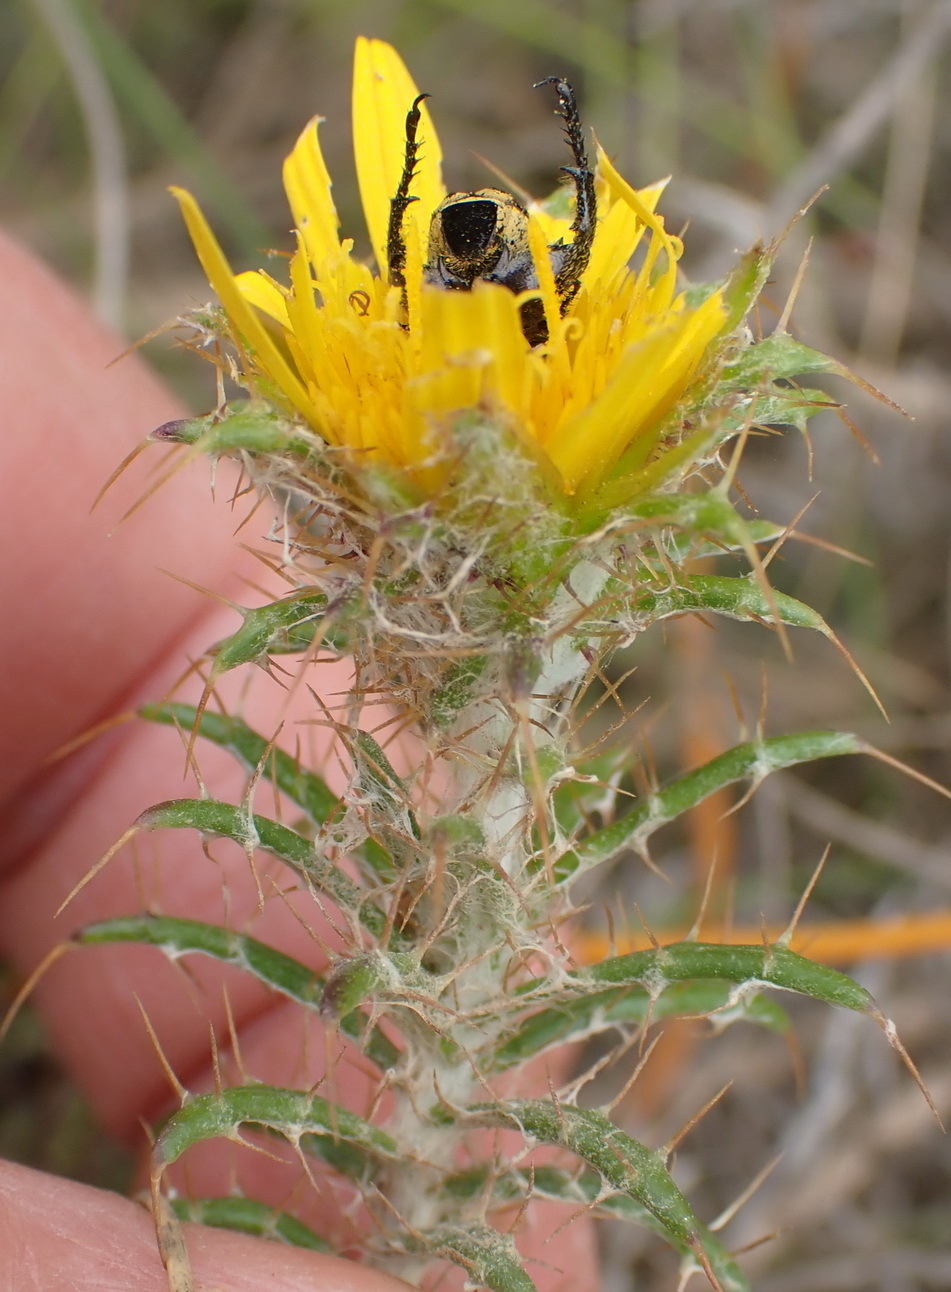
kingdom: Plantae
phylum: Tracheophyta
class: Magnoliopsida
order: Asterales
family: Asteraceae
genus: Cullumia
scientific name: Cullumia bisulca
